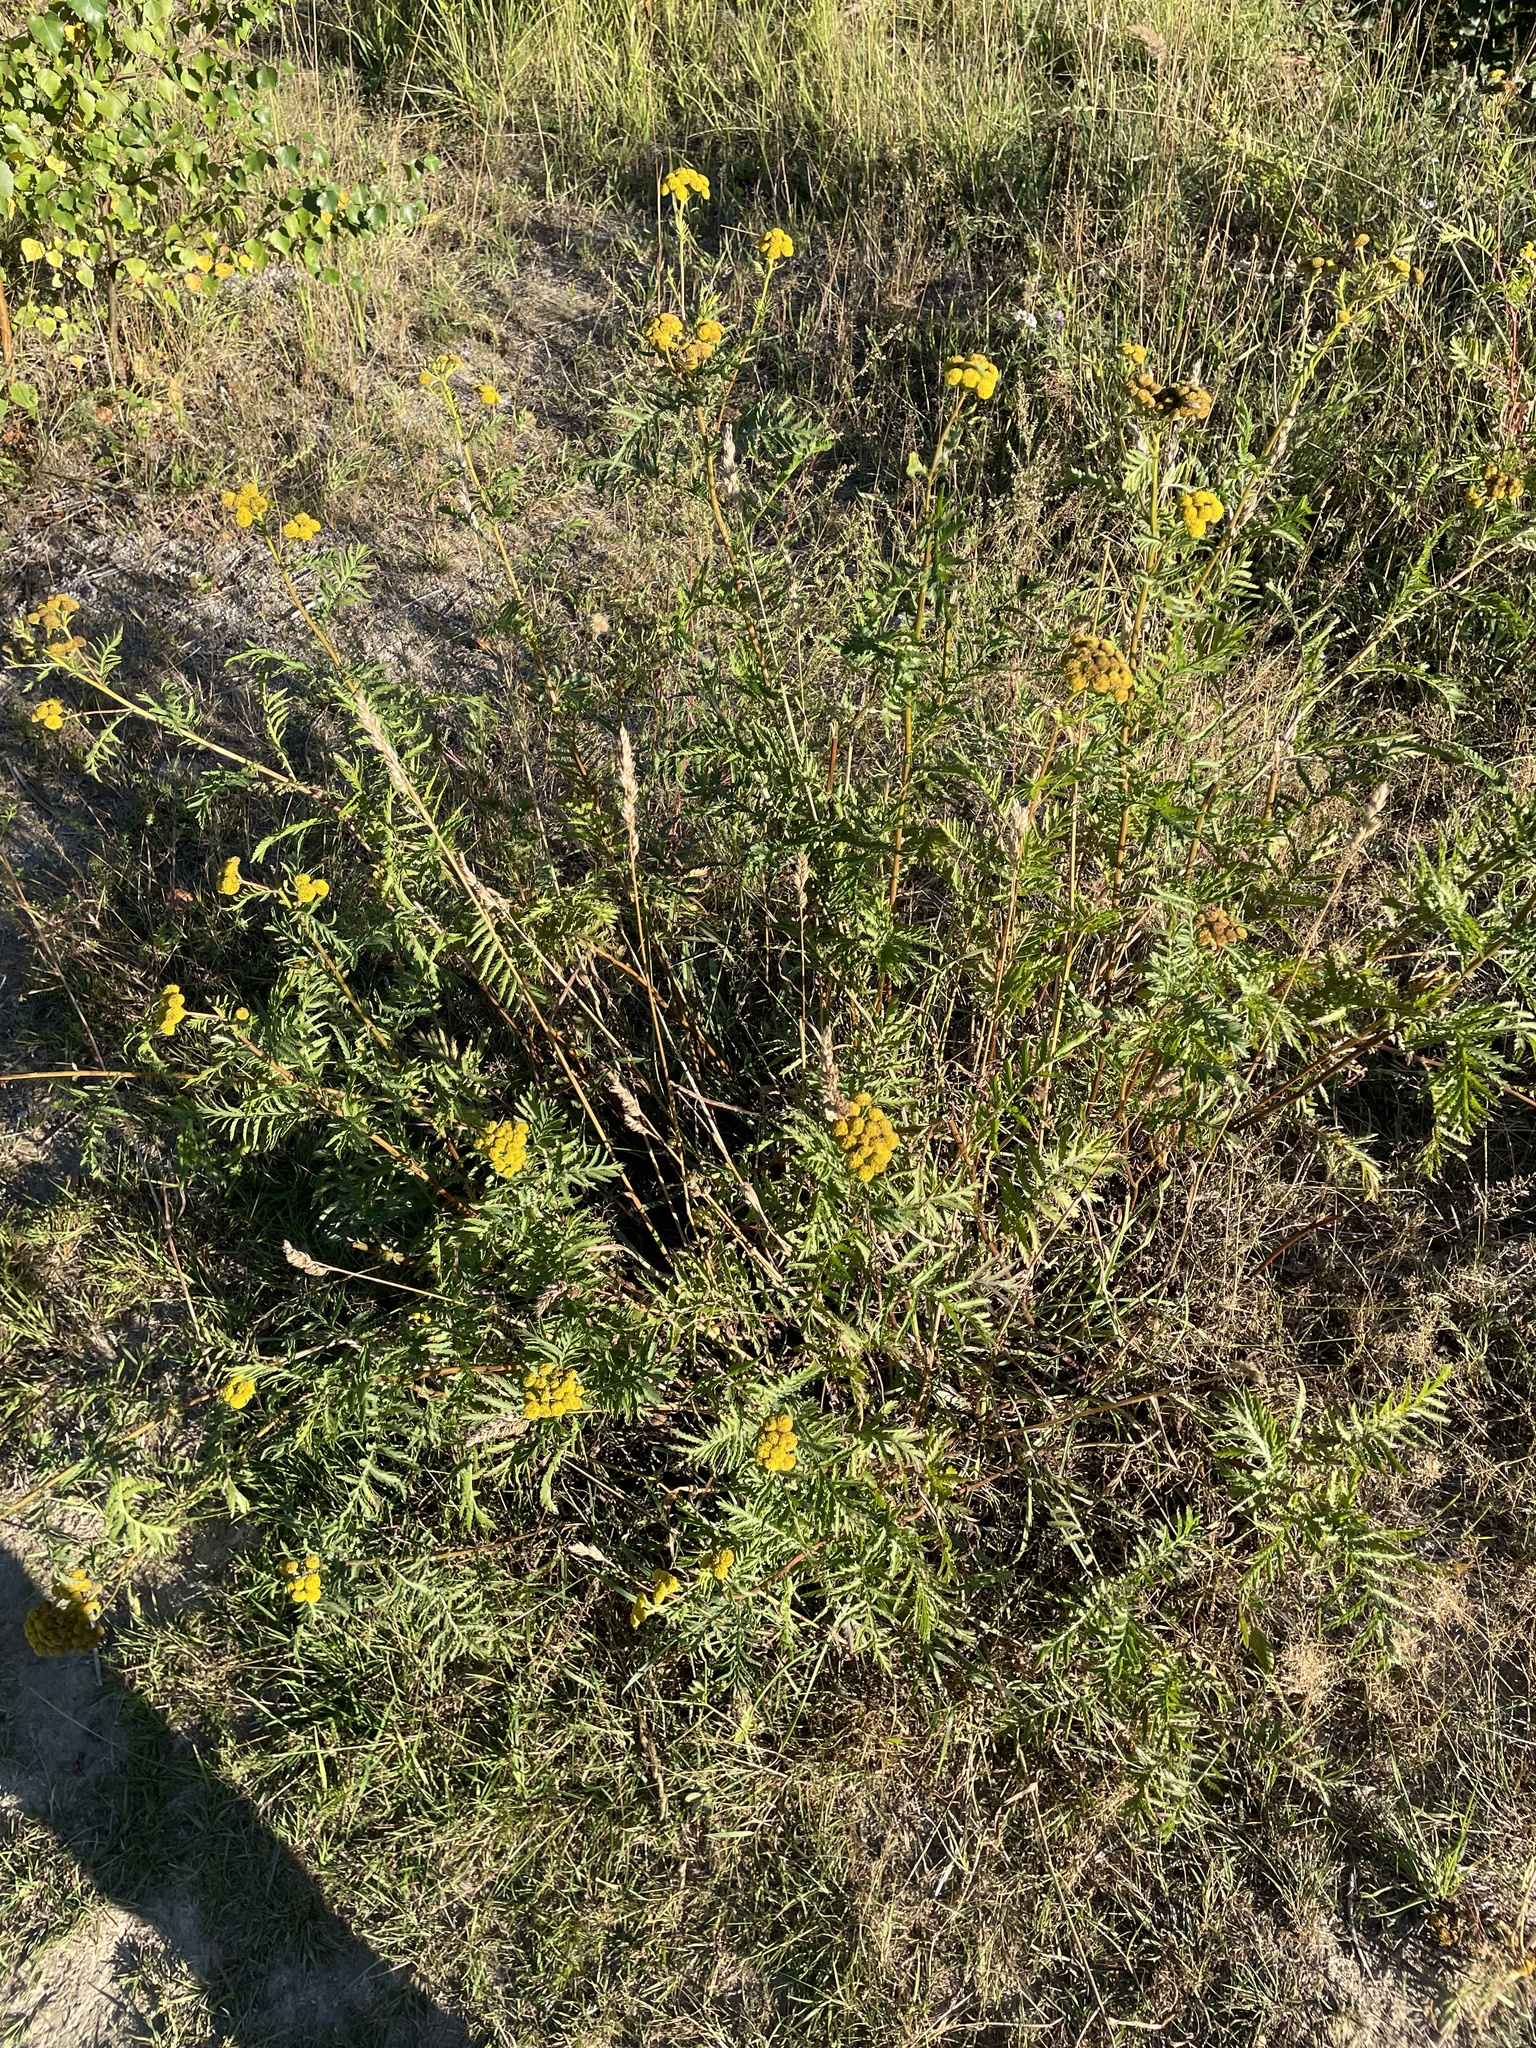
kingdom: Plantae
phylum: Tracheophyta
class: Magnoliopsida
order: Asterales
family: Asteraceae
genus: Tanacetum
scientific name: Tanacetum vulgare
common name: Common tansy
